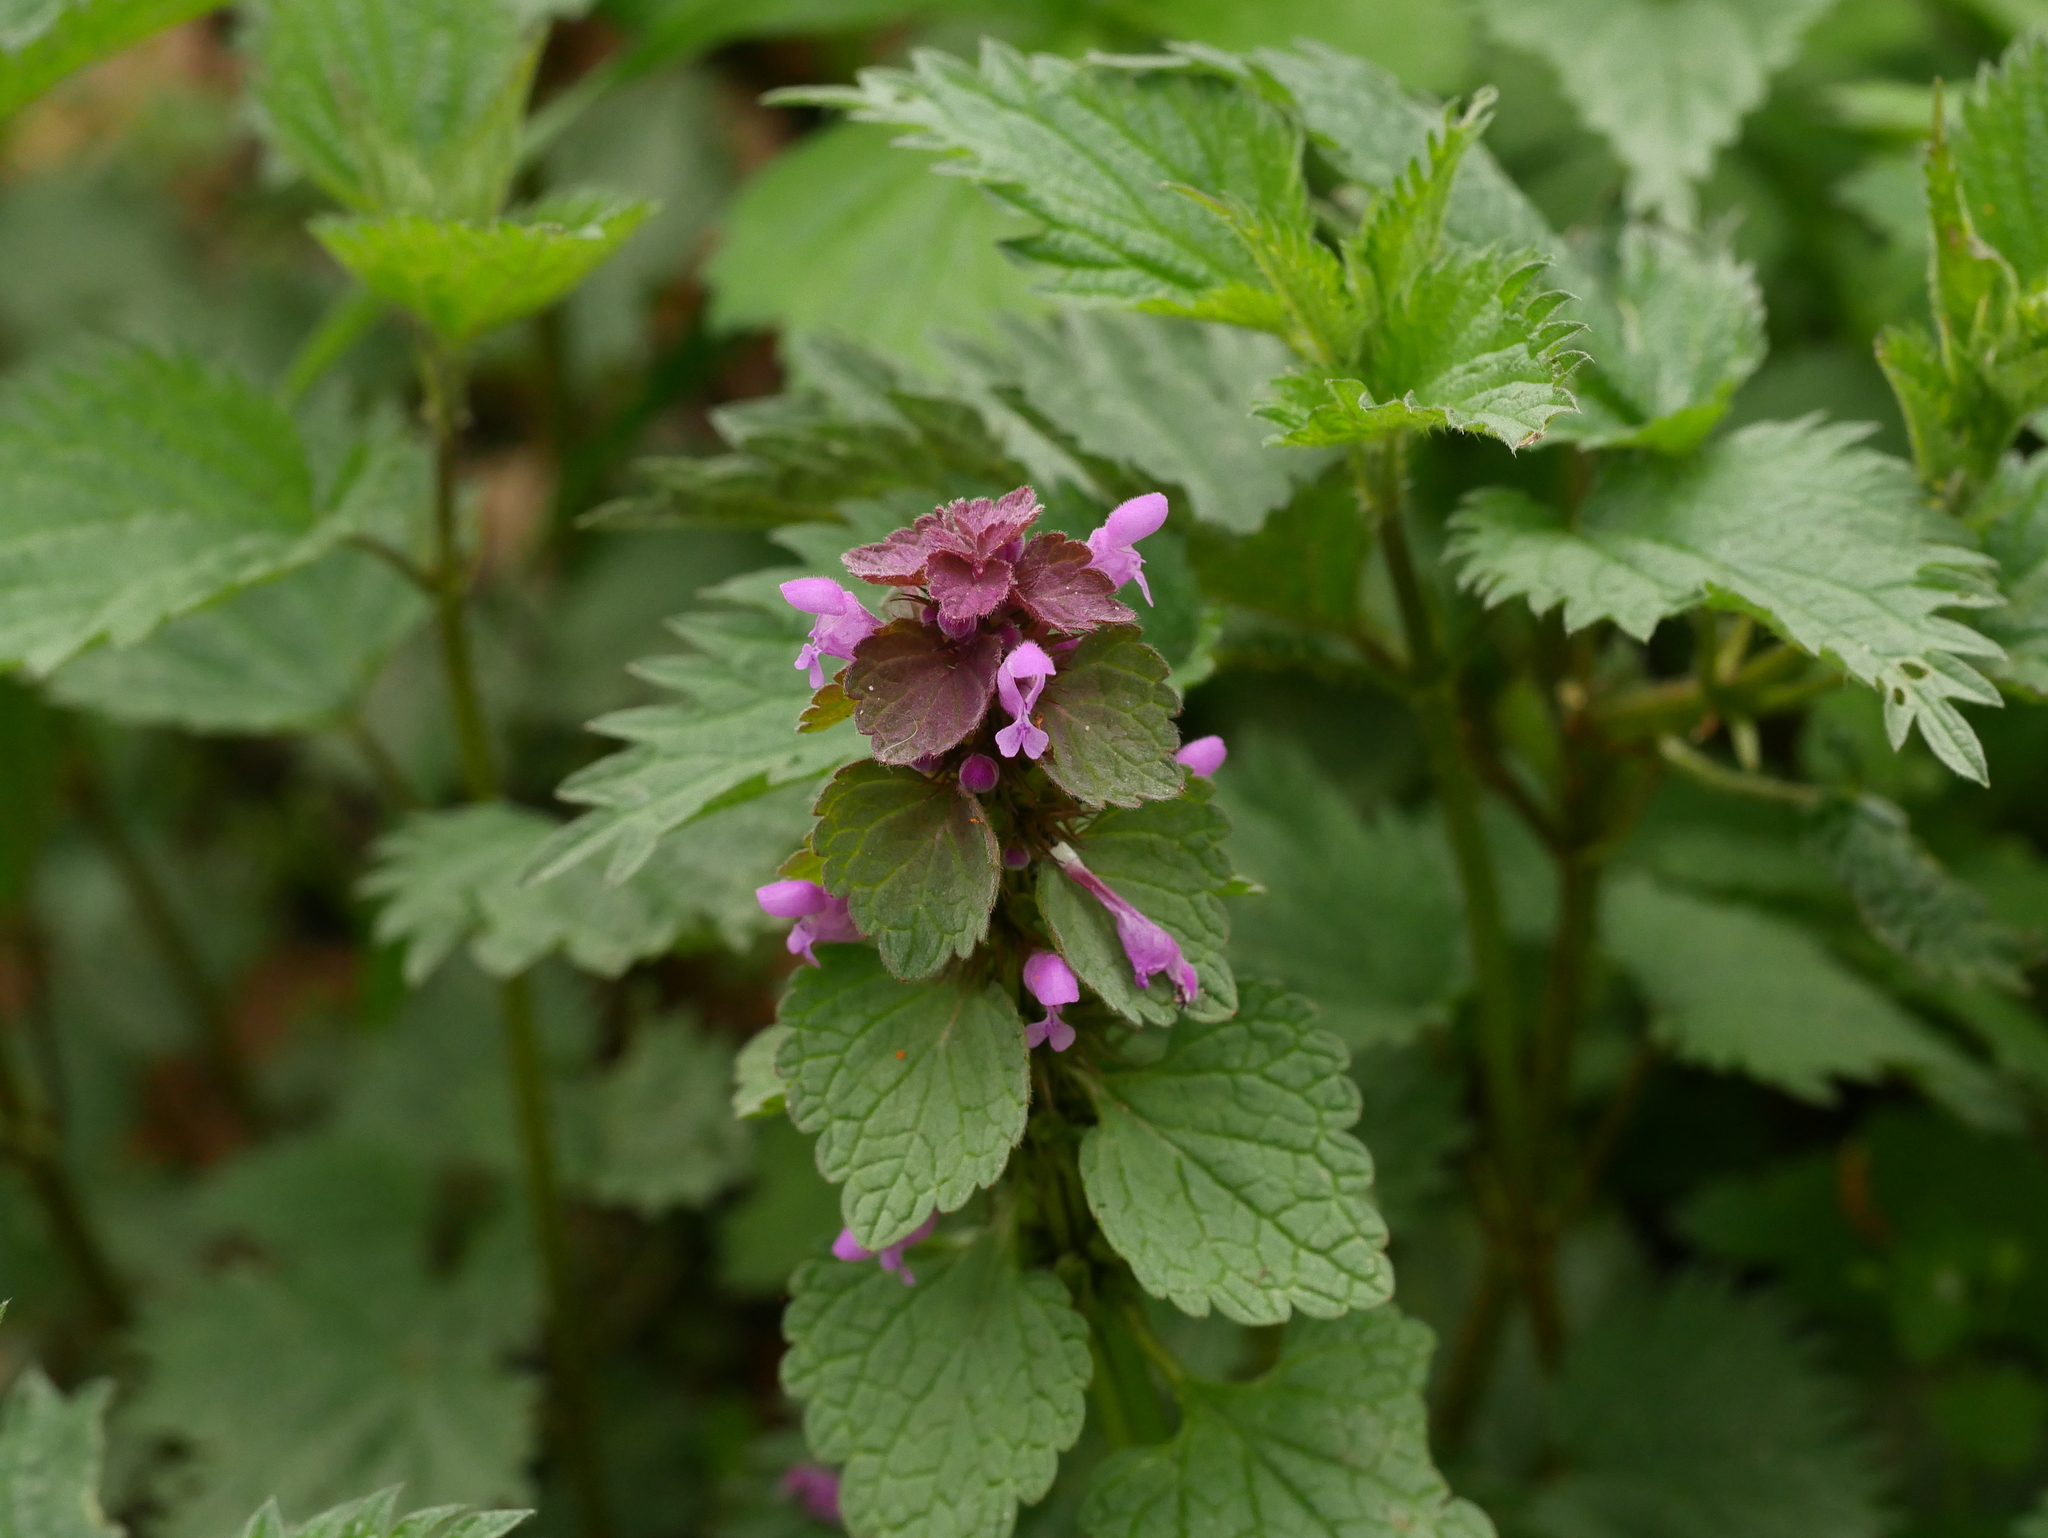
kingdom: Plantae
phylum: Tracheophyta
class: Magnoliopsida
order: Lamiales
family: Lamiaceae
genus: Lamium
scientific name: Lamium purpureum
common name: Red dead-nettle
